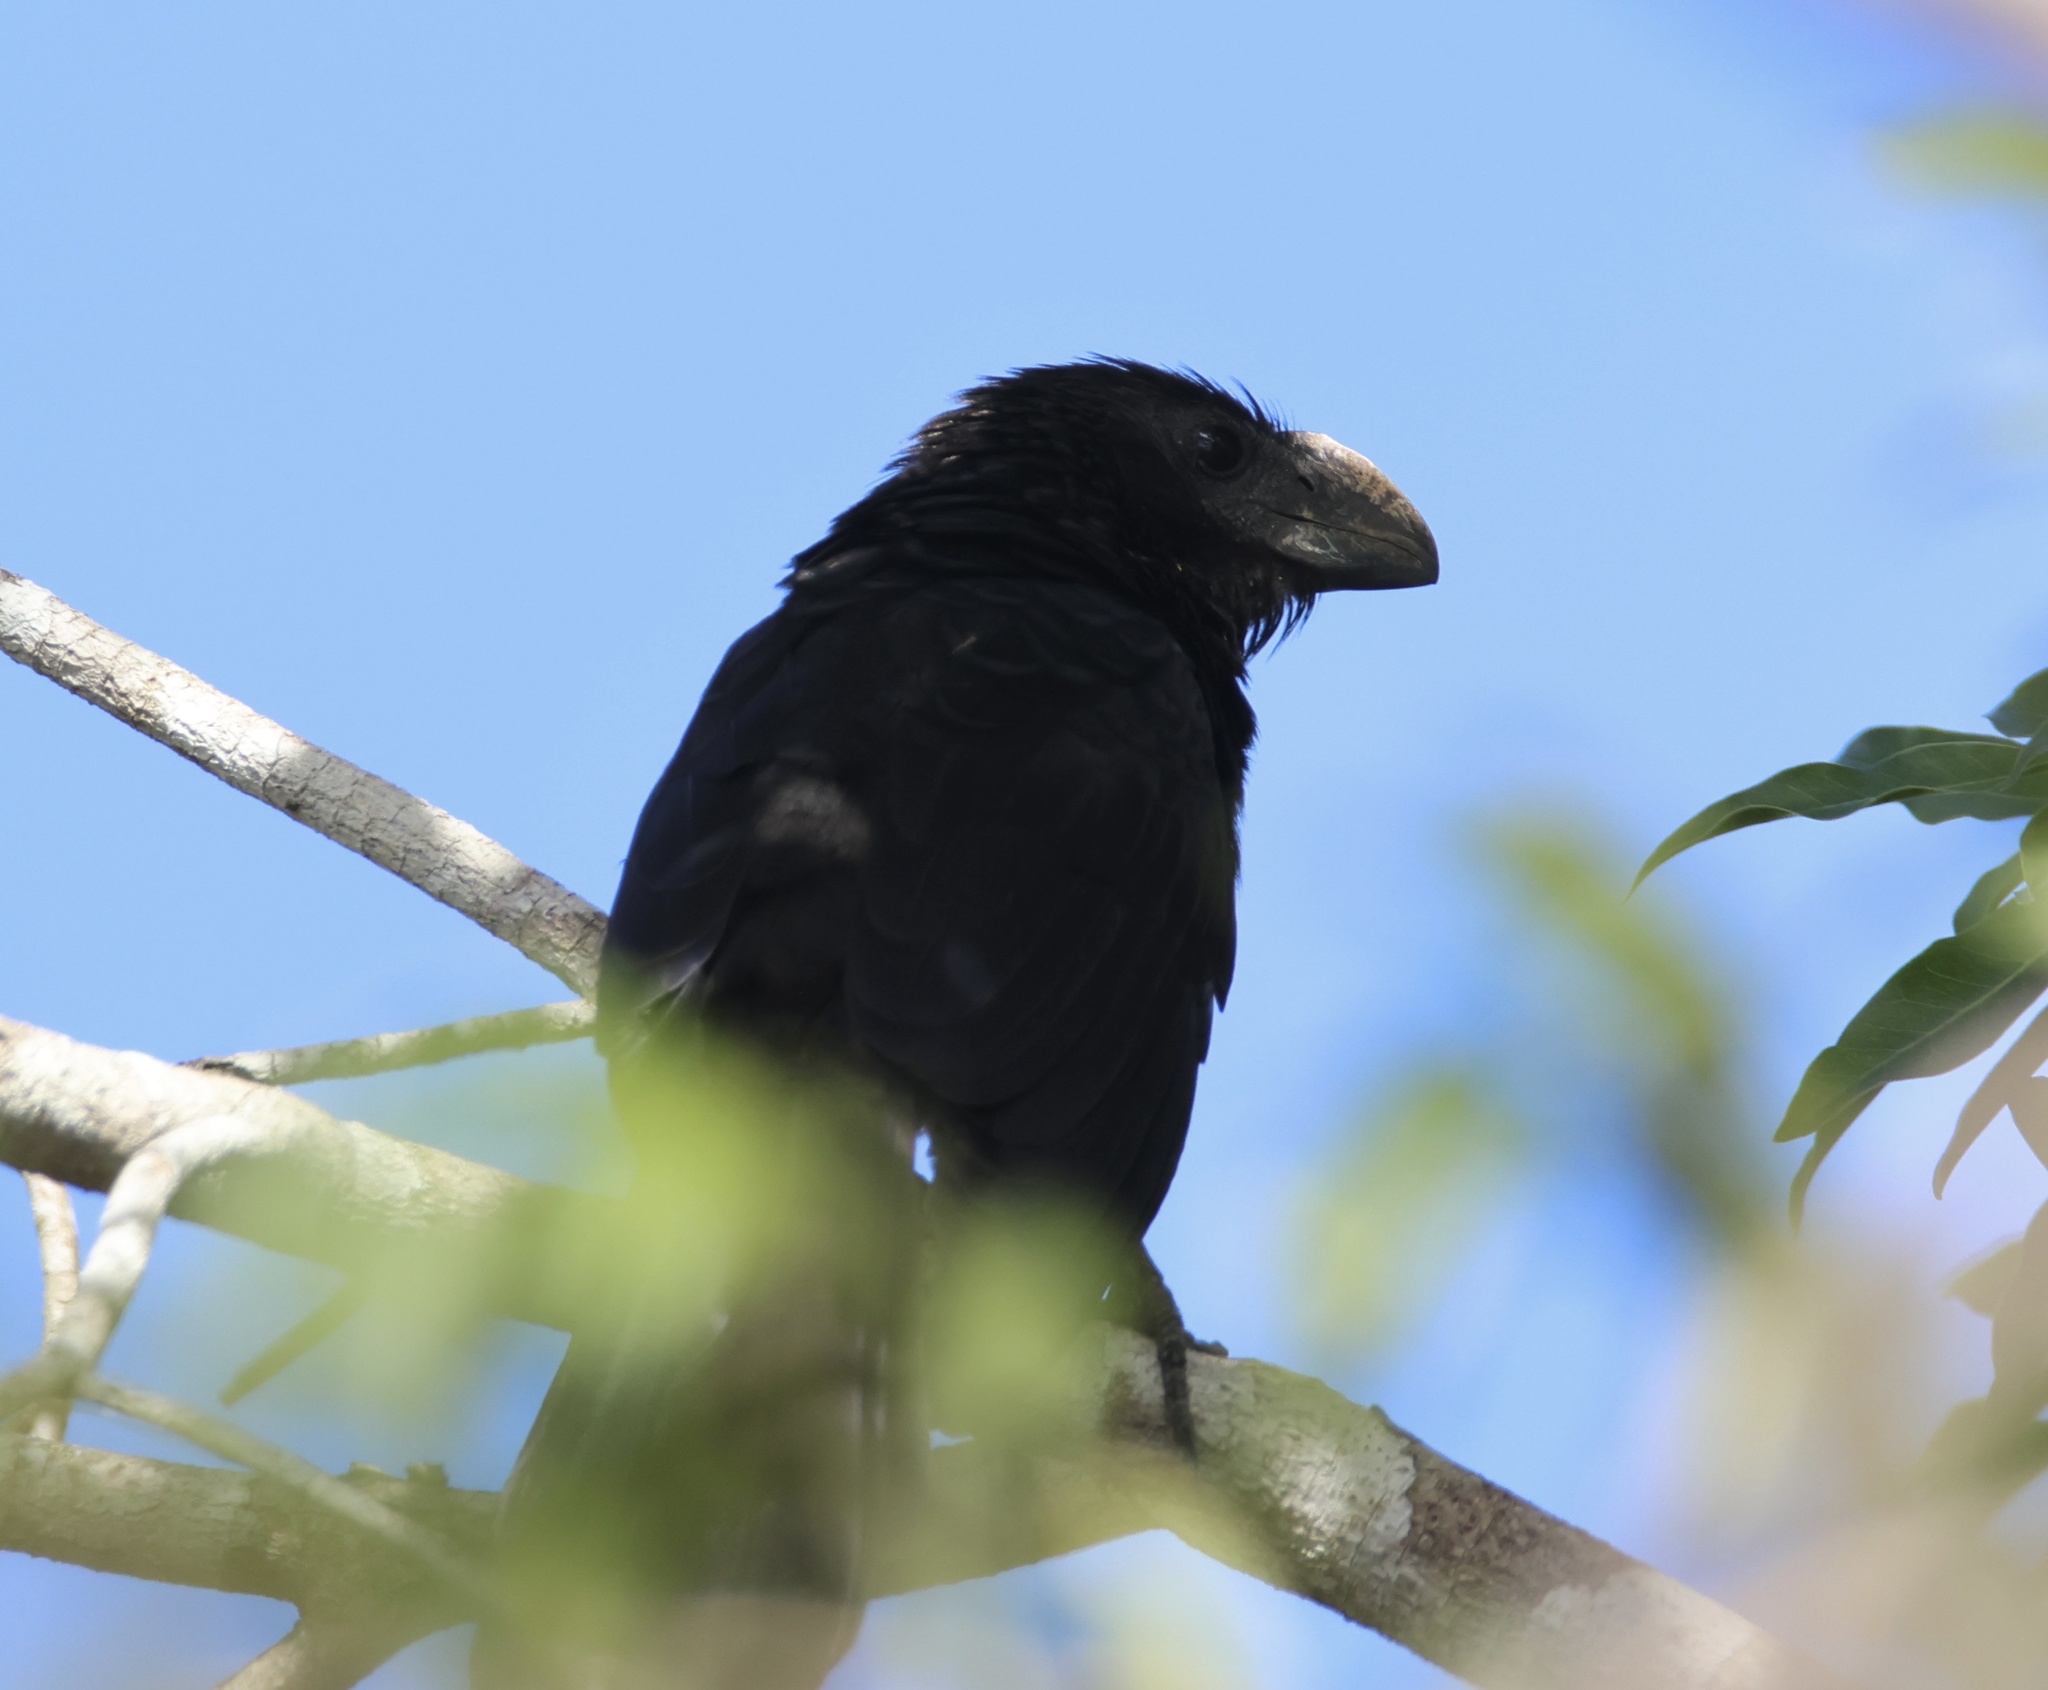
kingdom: Animalia
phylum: Chordata
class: Aves
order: Cuculiformes
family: Cuculidae
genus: Crotophaga
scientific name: Crotophaga ani
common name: Smooth-billed ani
